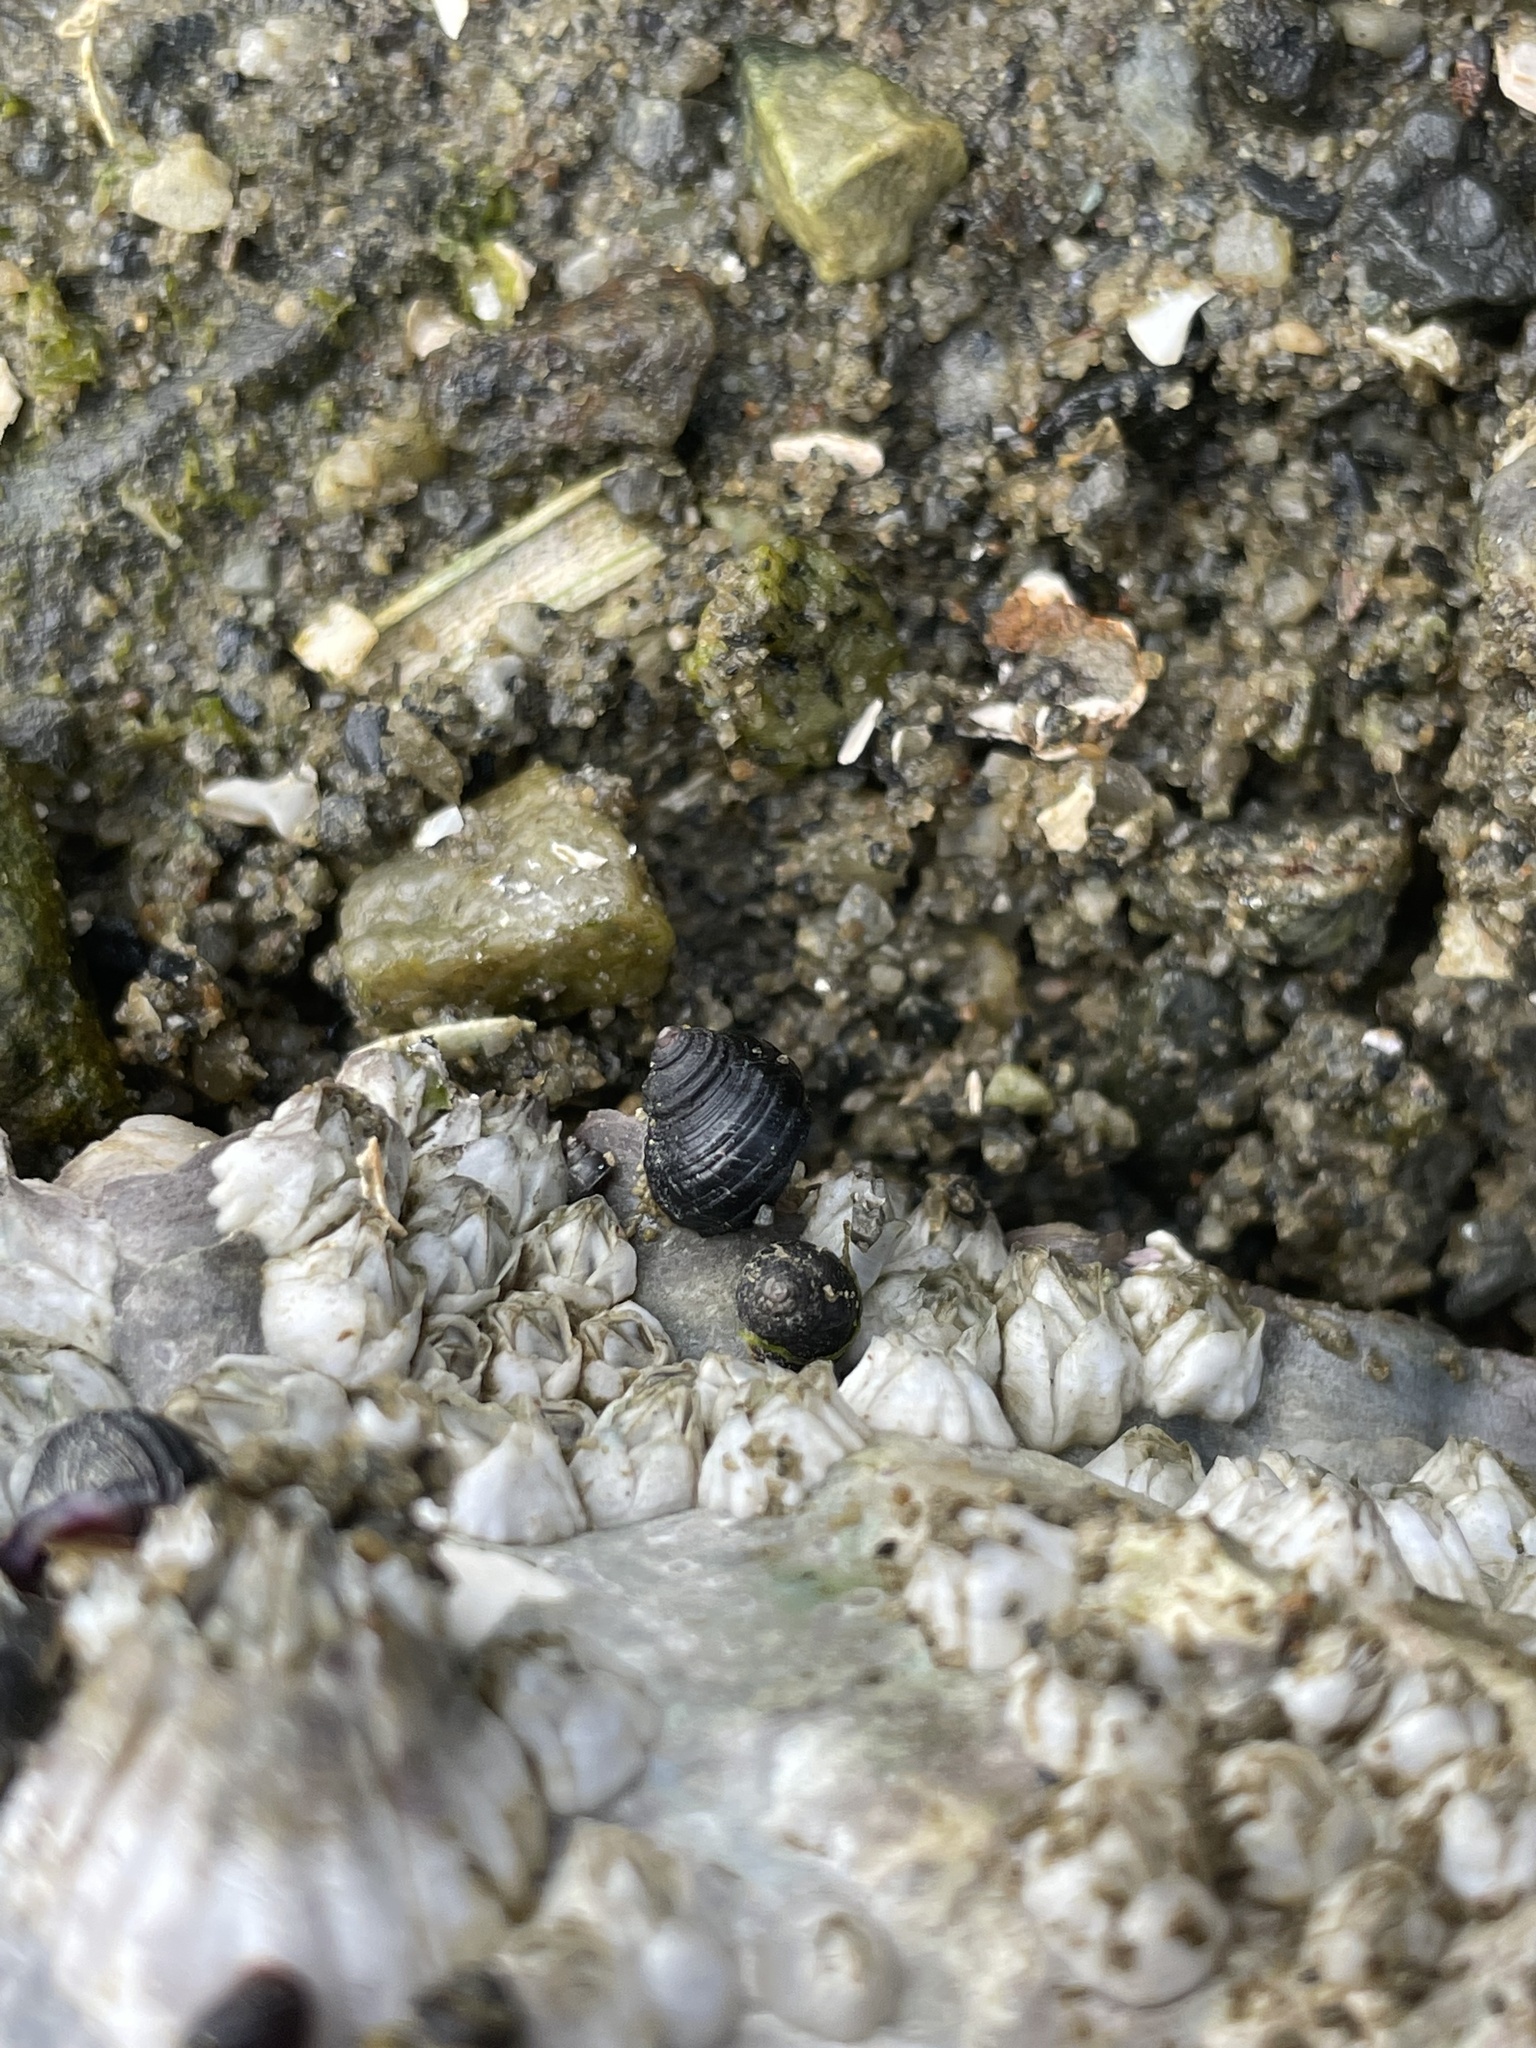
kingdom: Animalia
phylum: Mollusca
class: Gastropoda
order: Littorinimorpha
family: Littorinidae
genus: Littorina
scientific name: Littorina sitkana
